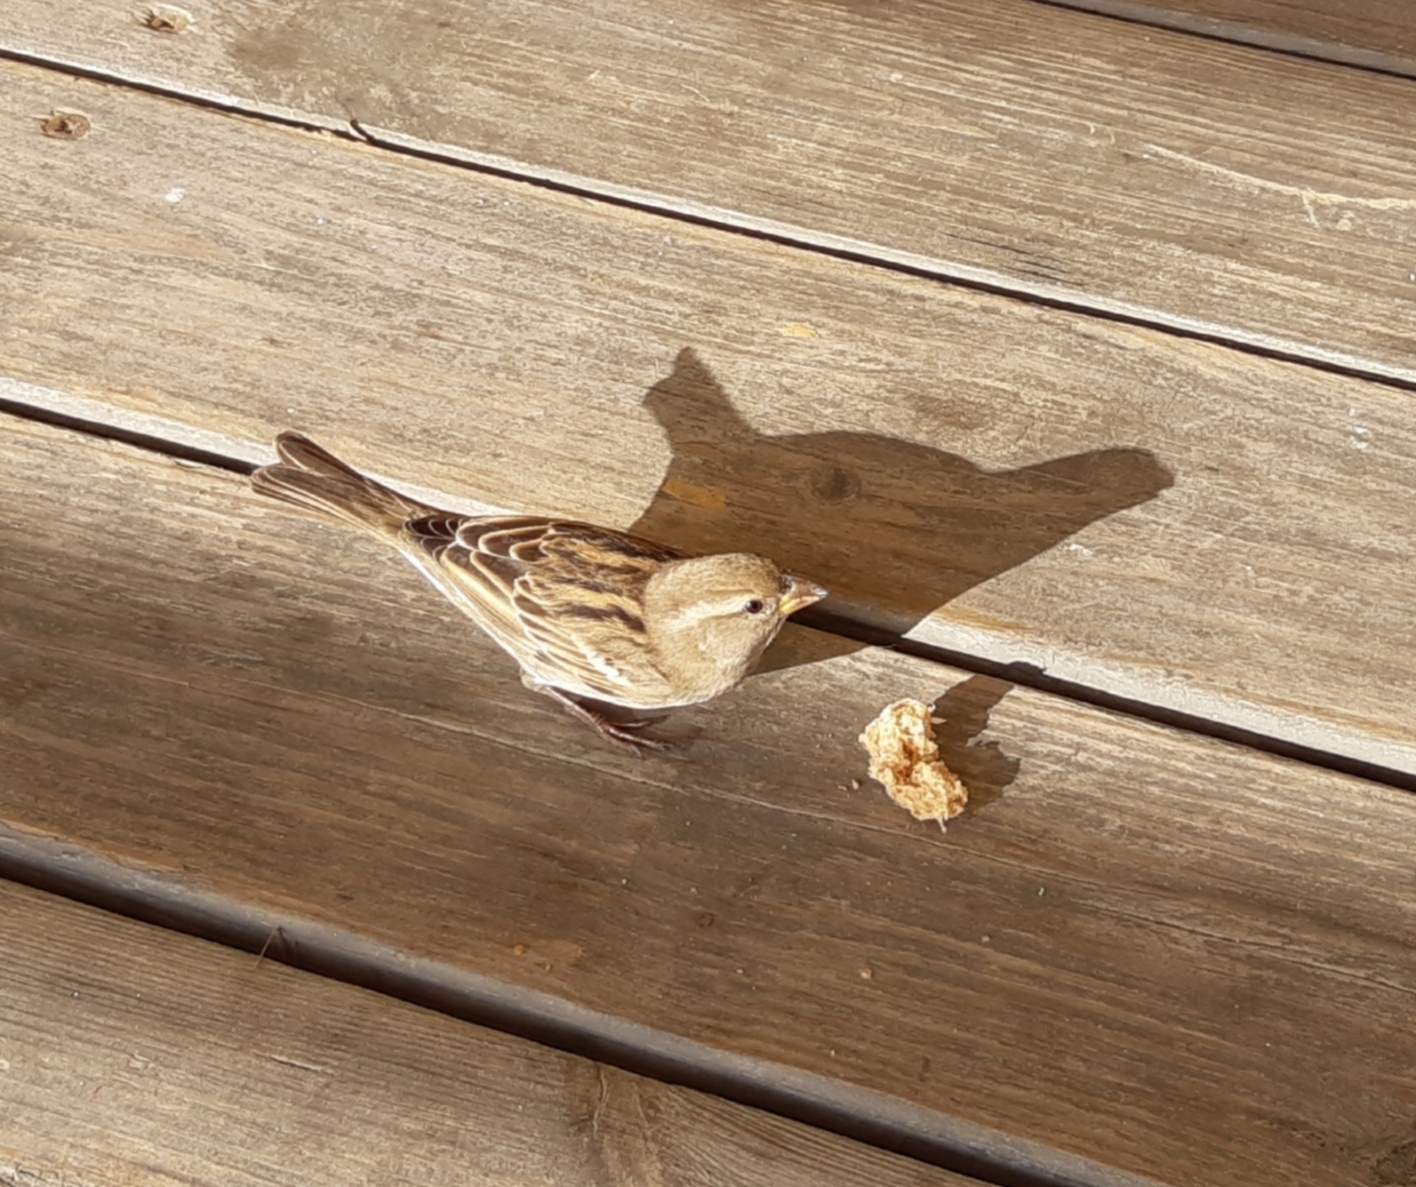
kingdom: Animalia
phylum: Chordata
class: Aves
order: Passeriformes
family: Passeridae
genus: Passer
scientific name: Passer domesticus
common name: House sparrow
